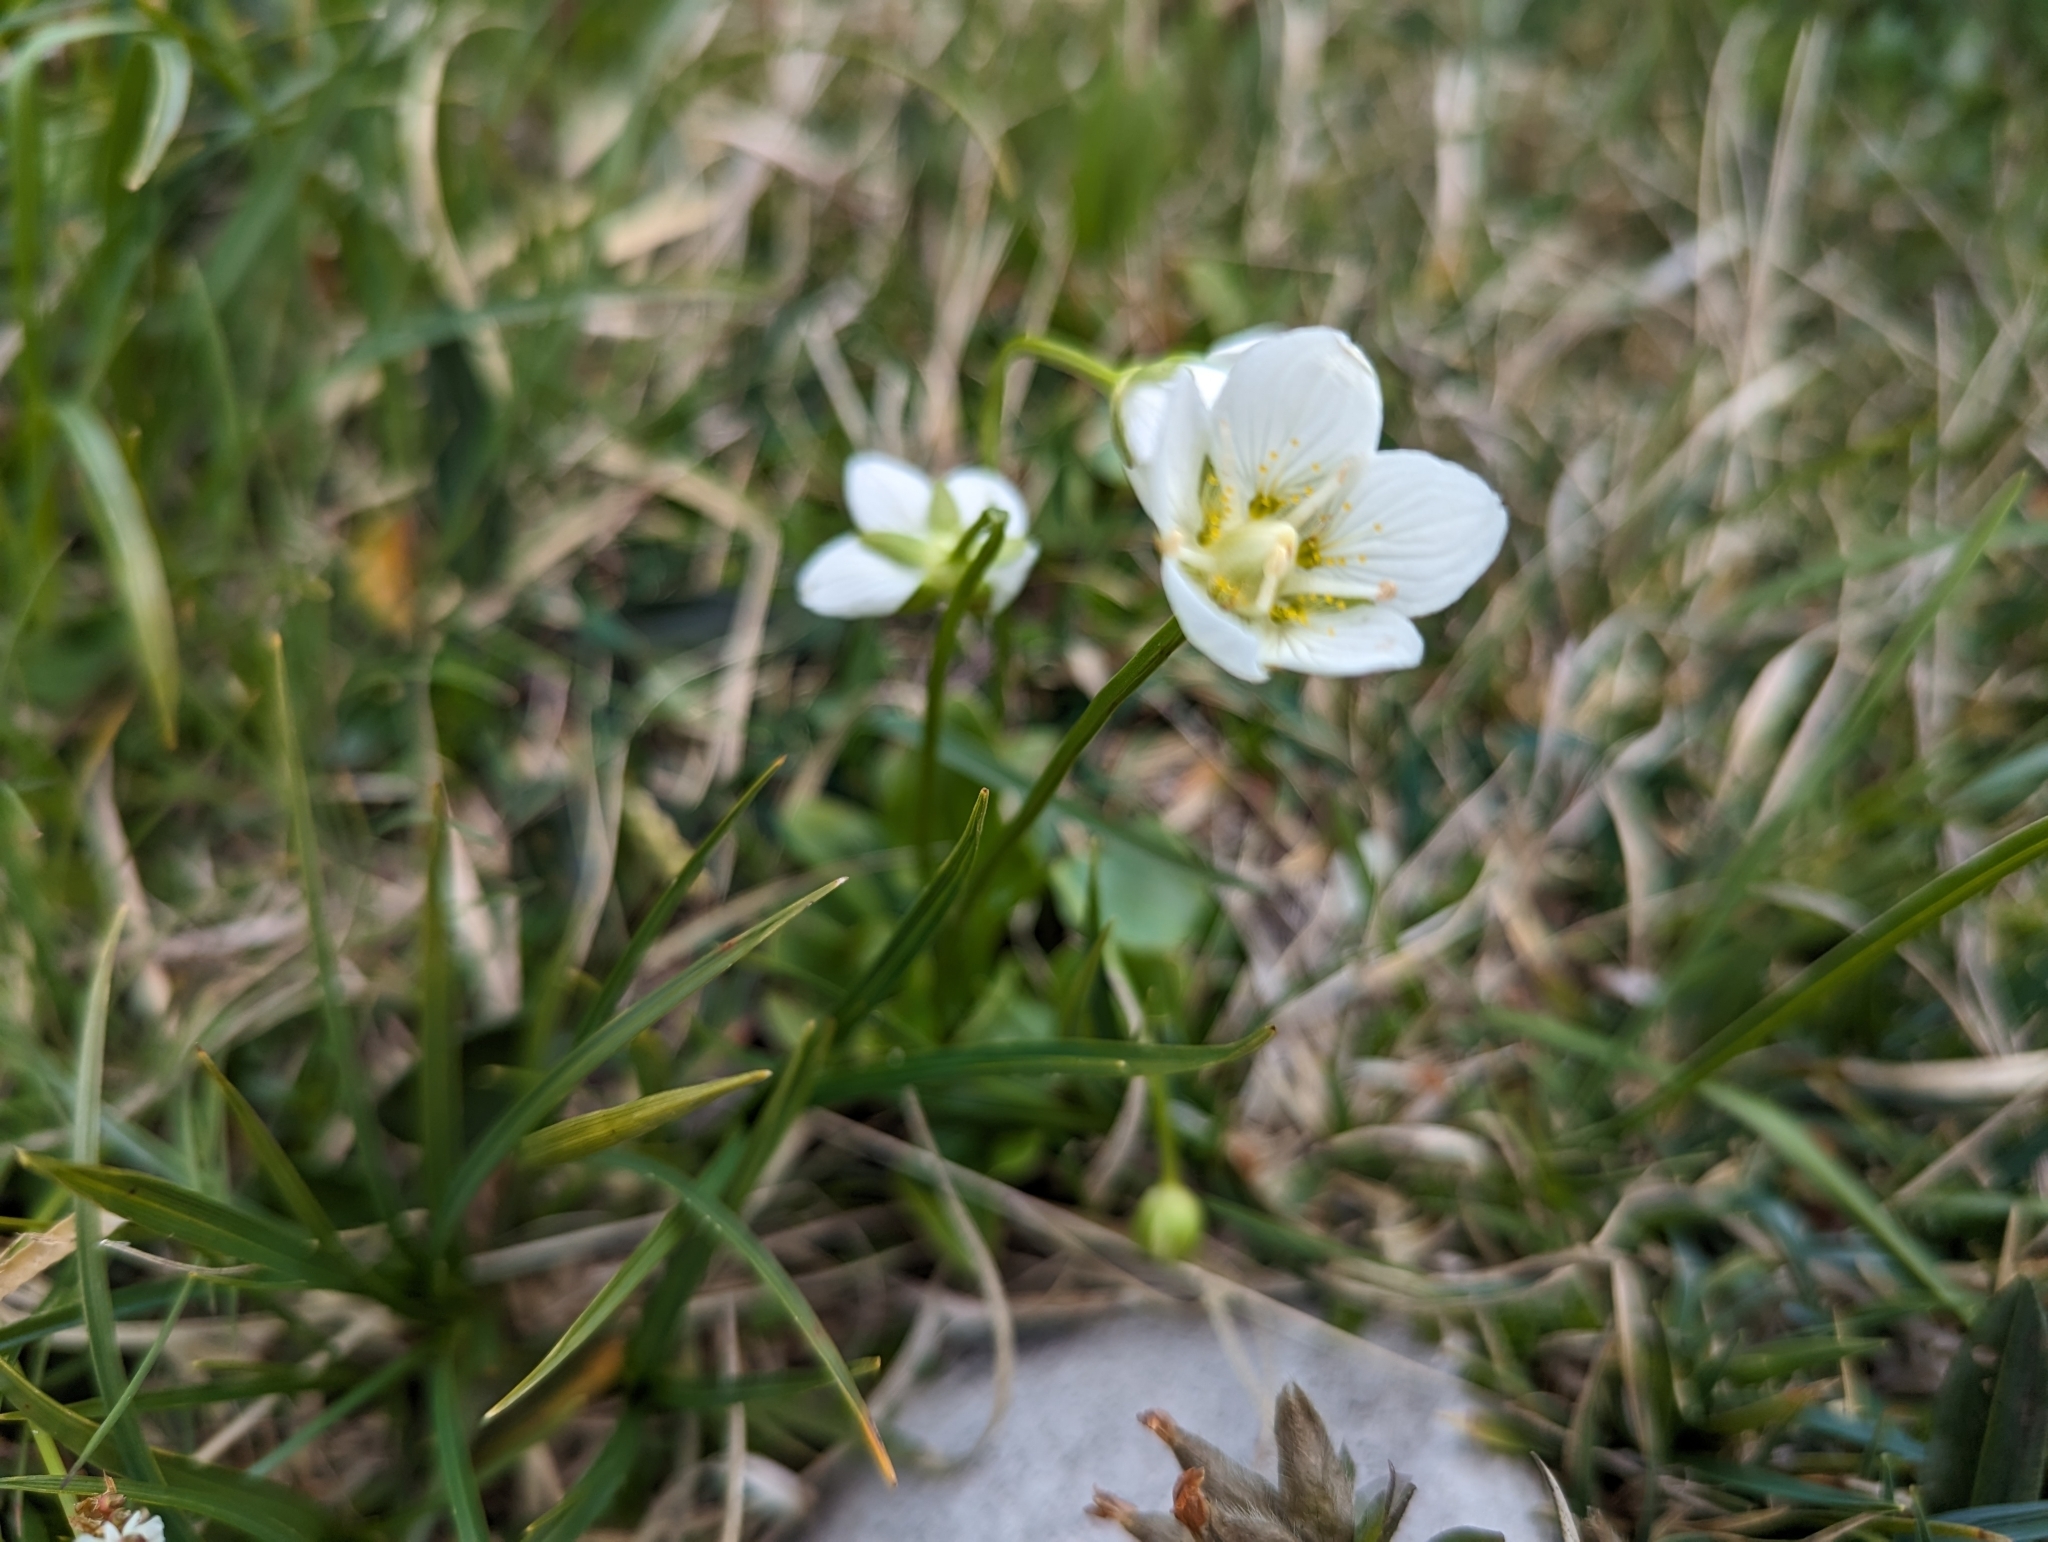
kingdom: Plantae
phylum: Tracheophyta
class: Magnoliopsida
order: Celastrales
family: Parnassiaceae
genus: Parnassia
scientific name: Parnassia palustris
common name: Grass-of-parnassus
